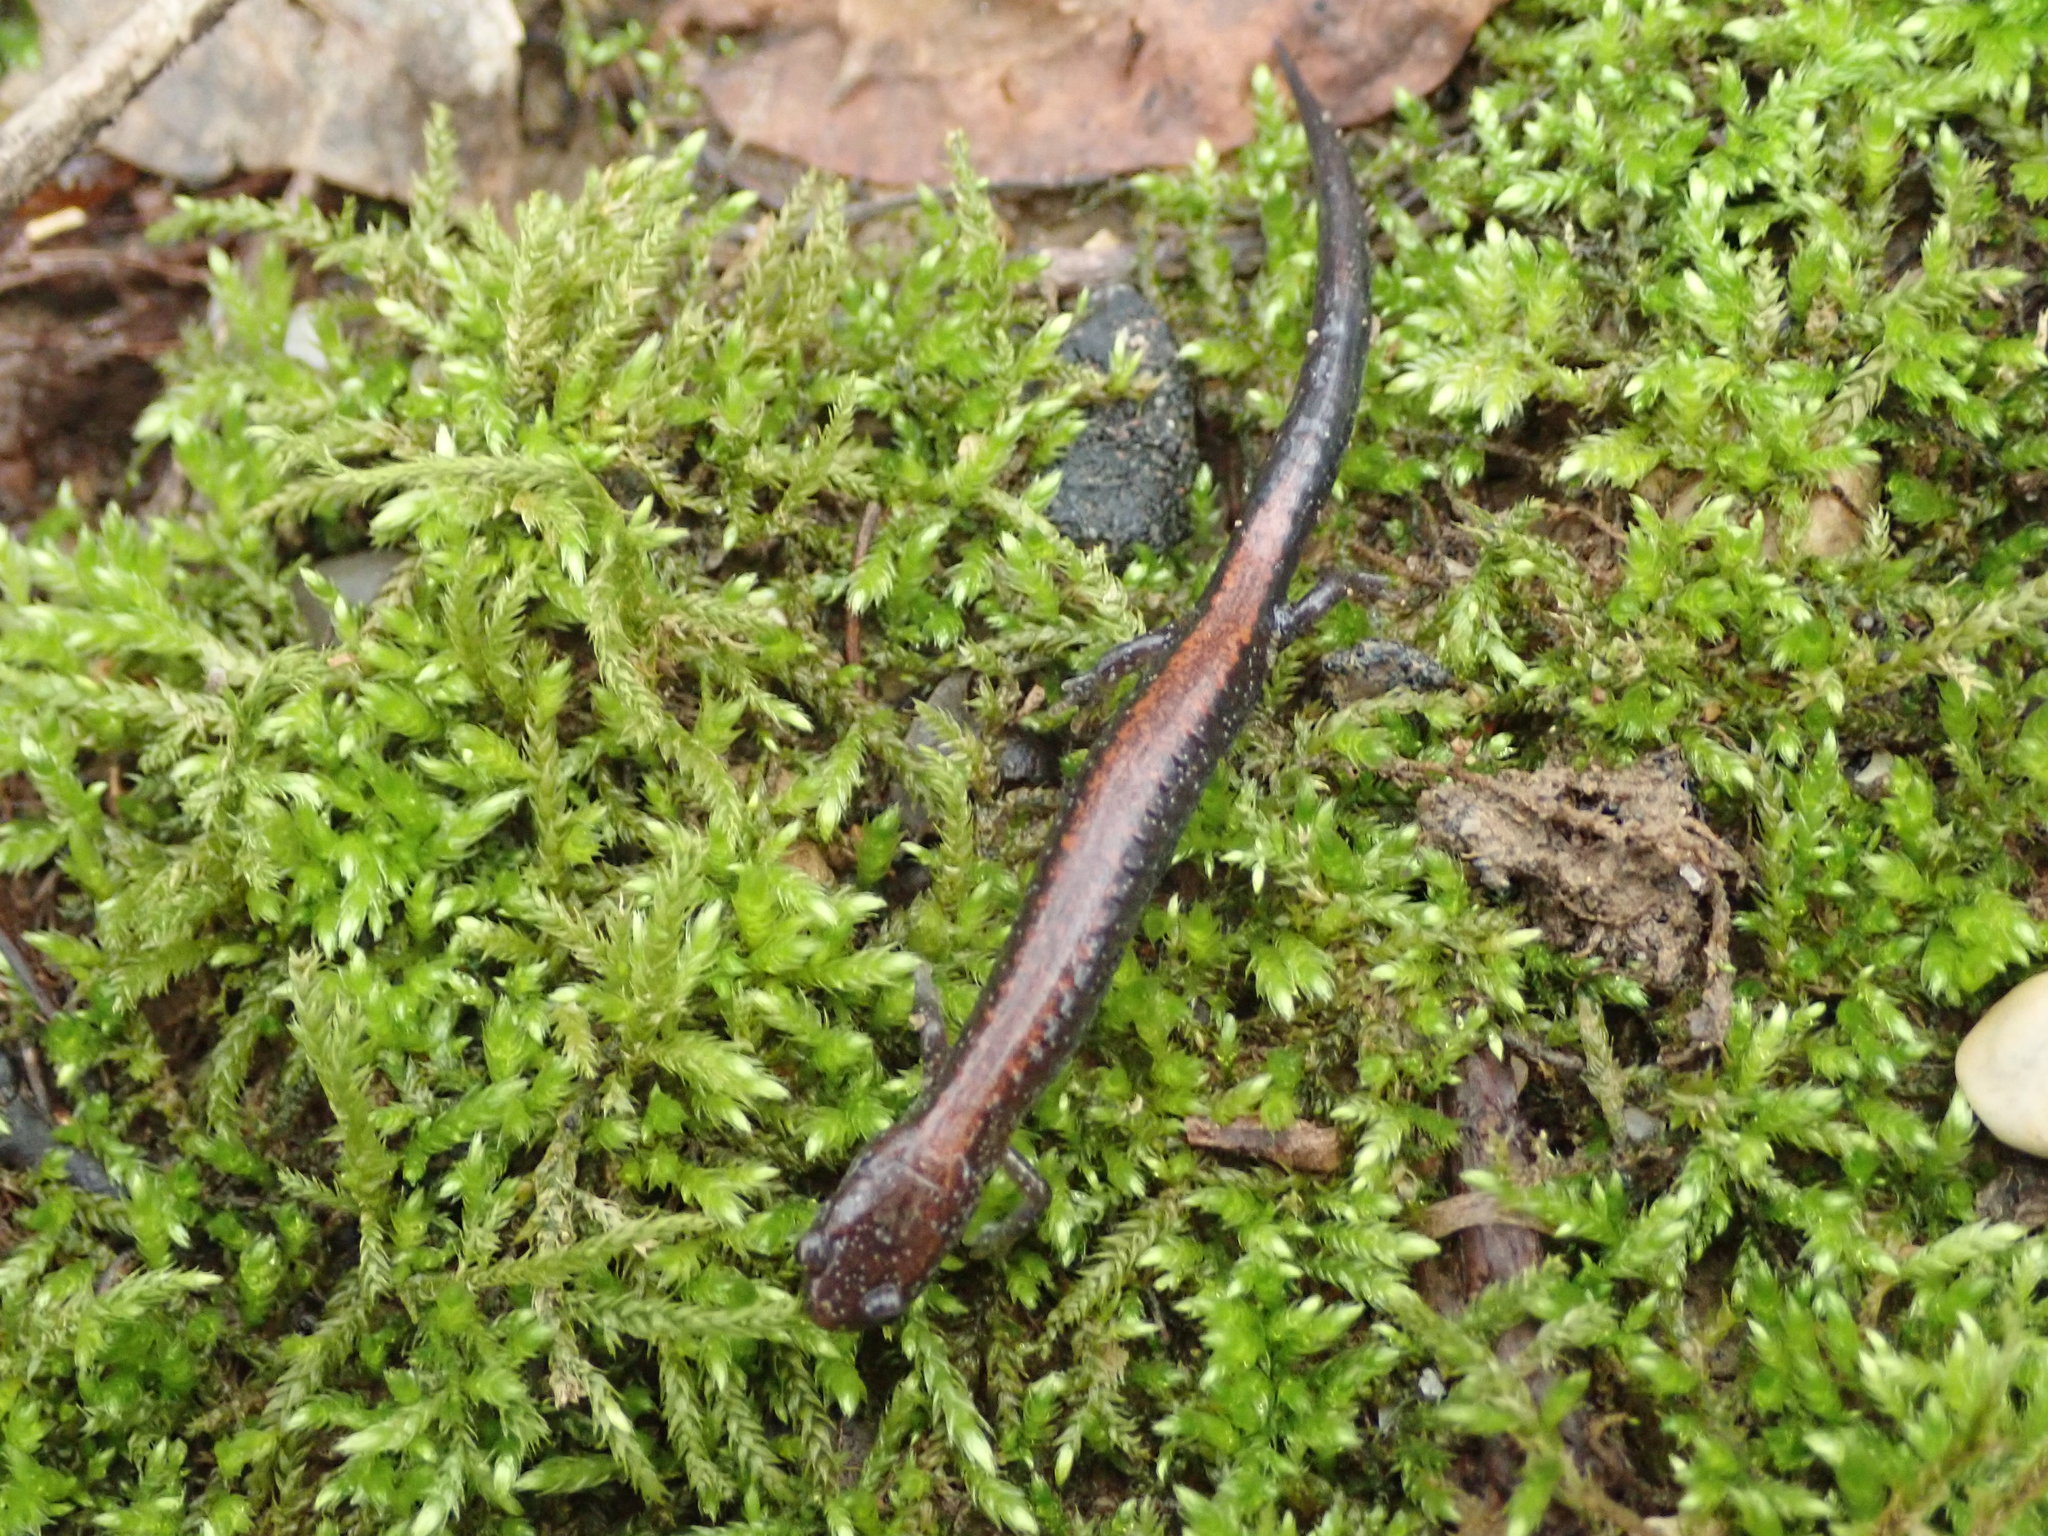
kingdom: Animalia
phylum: Chordata
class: Amphibia
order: Caudata
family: Plethodontidae
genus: Plethodon
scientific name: Plethodon cinereus
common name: Redback salamander
